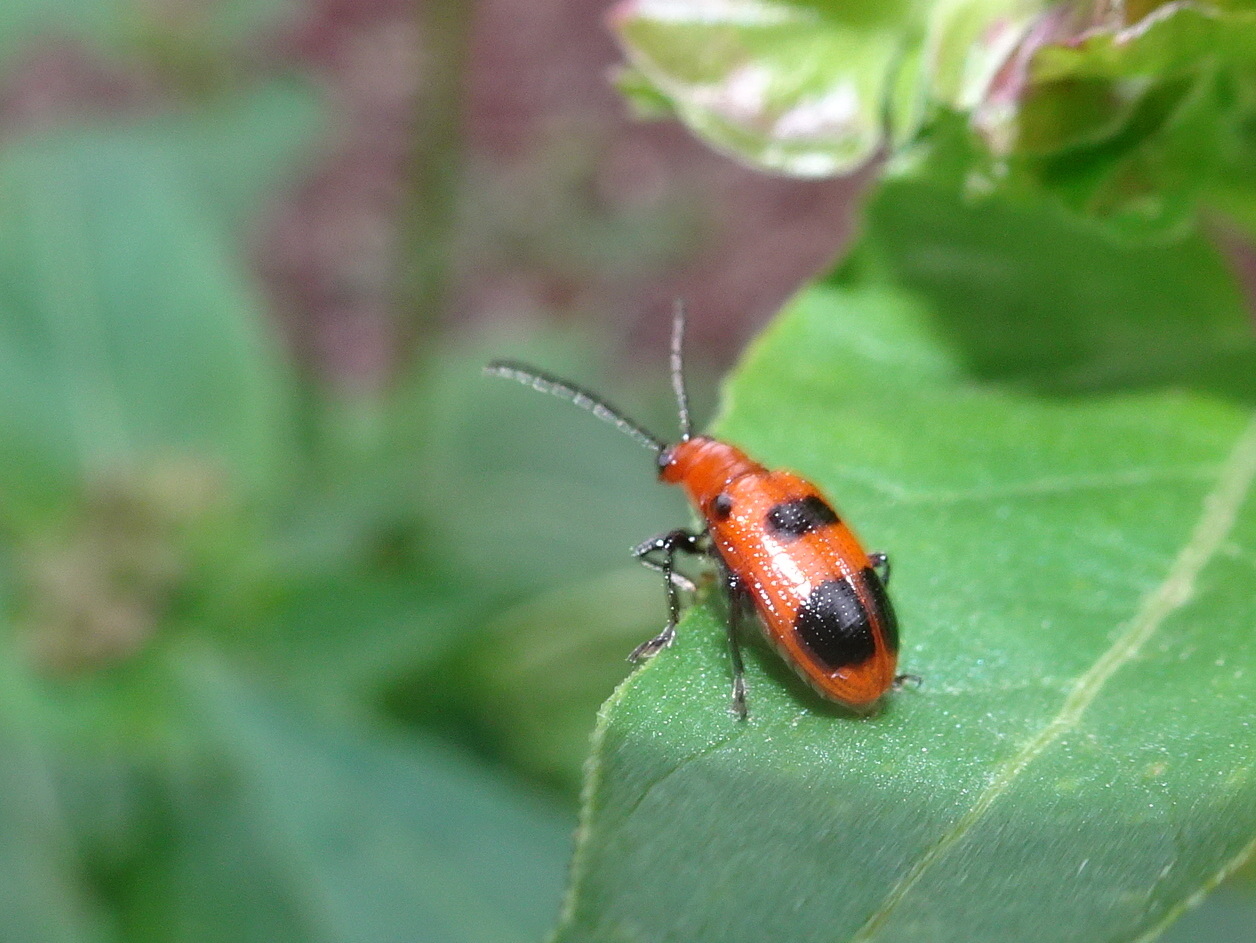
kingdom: Animalia
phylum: Arthropoda
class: Insecta
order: Coleoptera
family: Chrysomelidae
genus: Neolema
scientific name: Neolema sexpunctata
